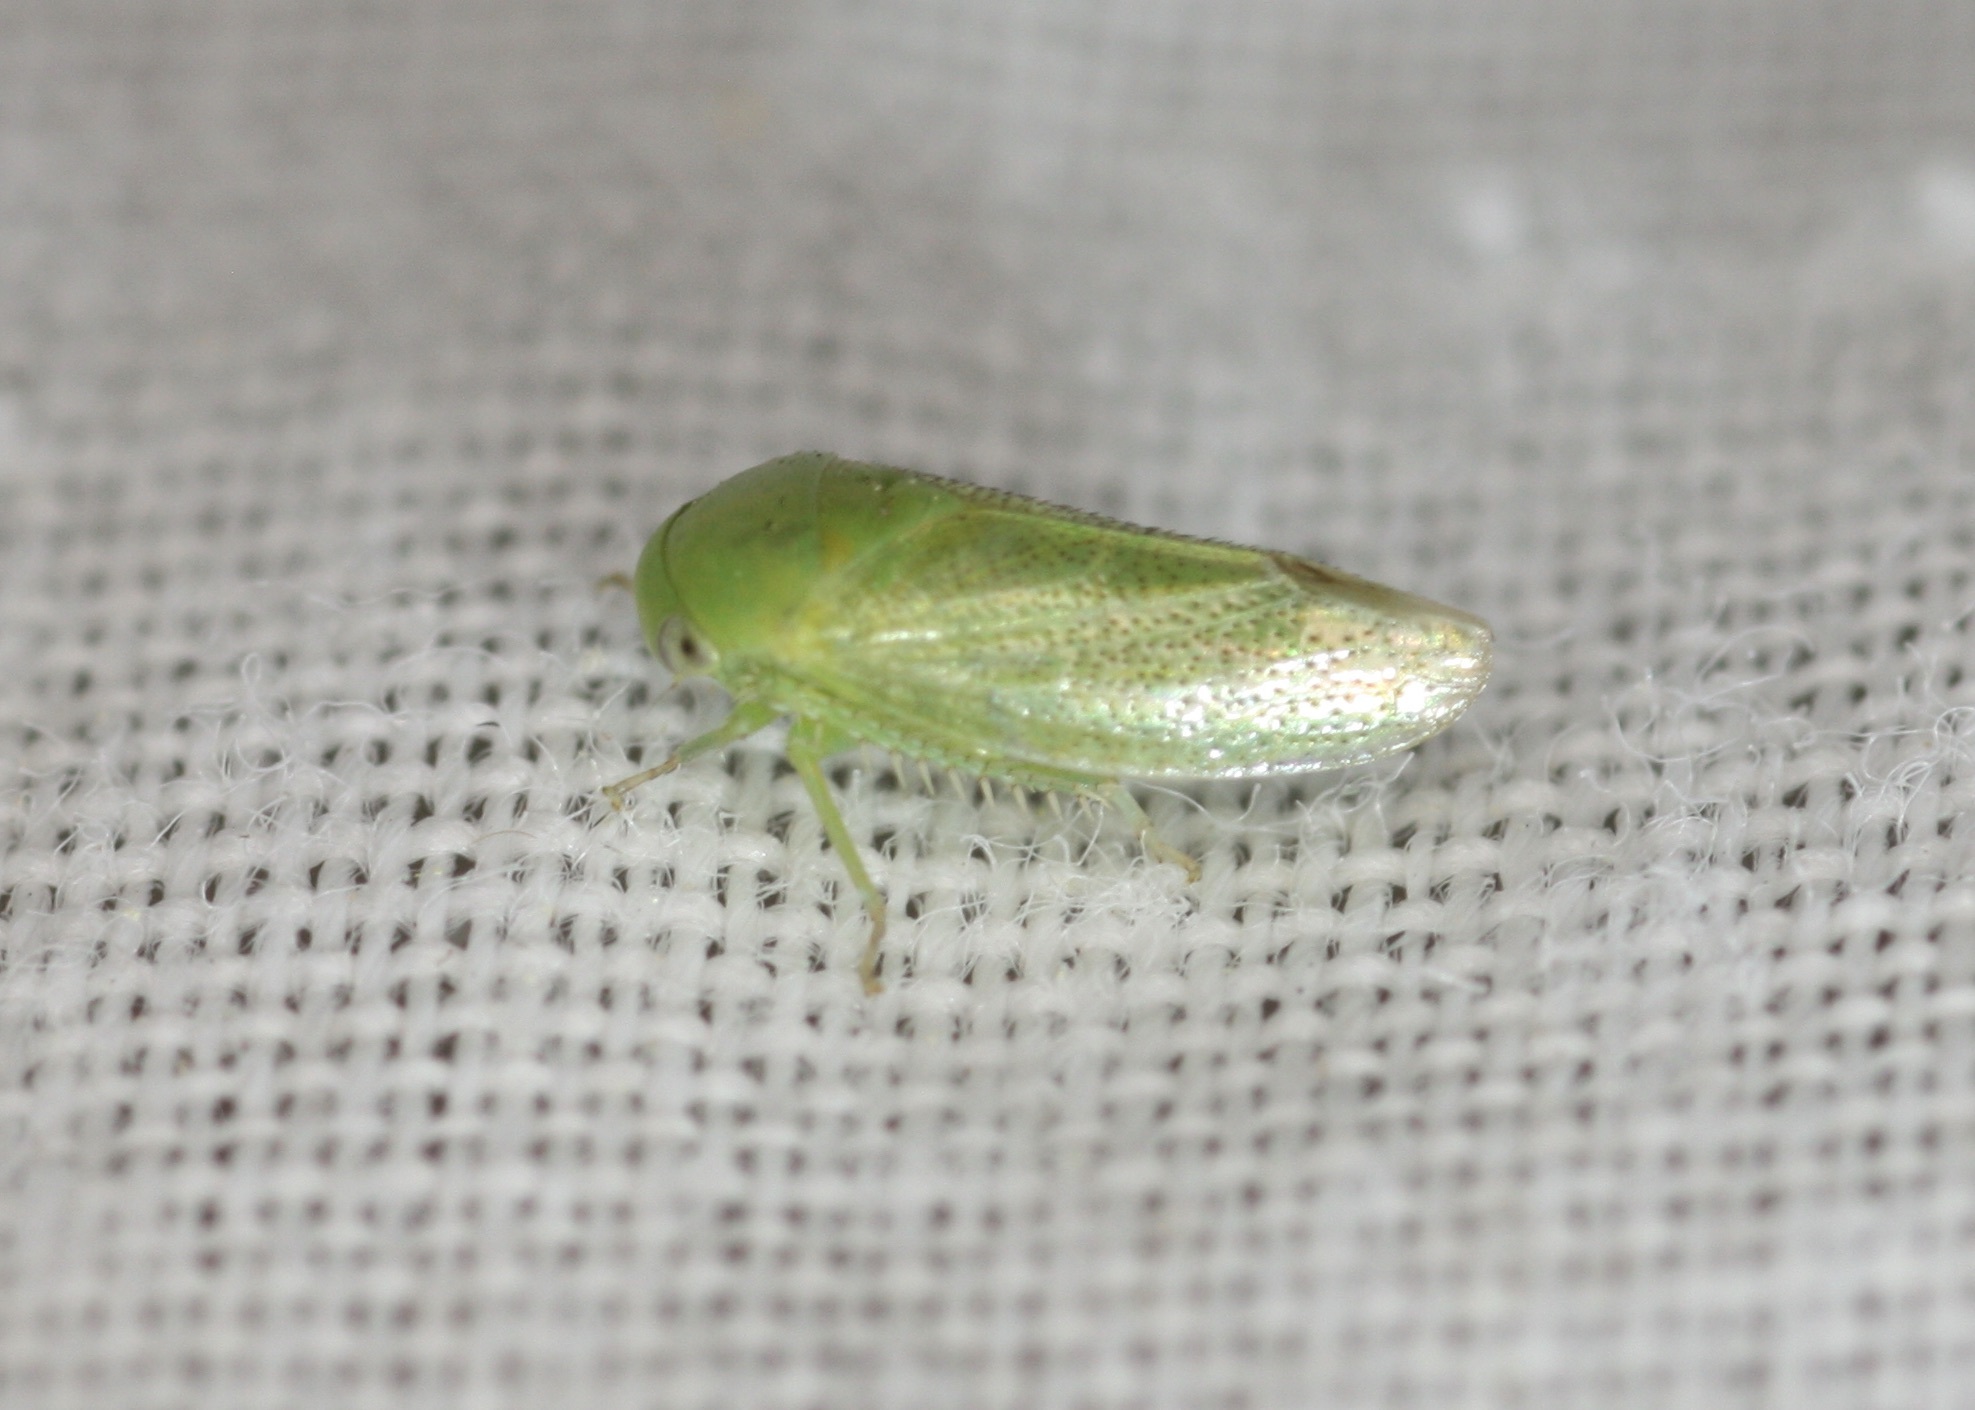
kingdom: Animalia
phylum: Arthropoda
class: Insecta
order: Hemiptera
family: Cicadellidae
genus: Penestragania
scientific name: Penestragania robusta
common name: Robust leafhopper
